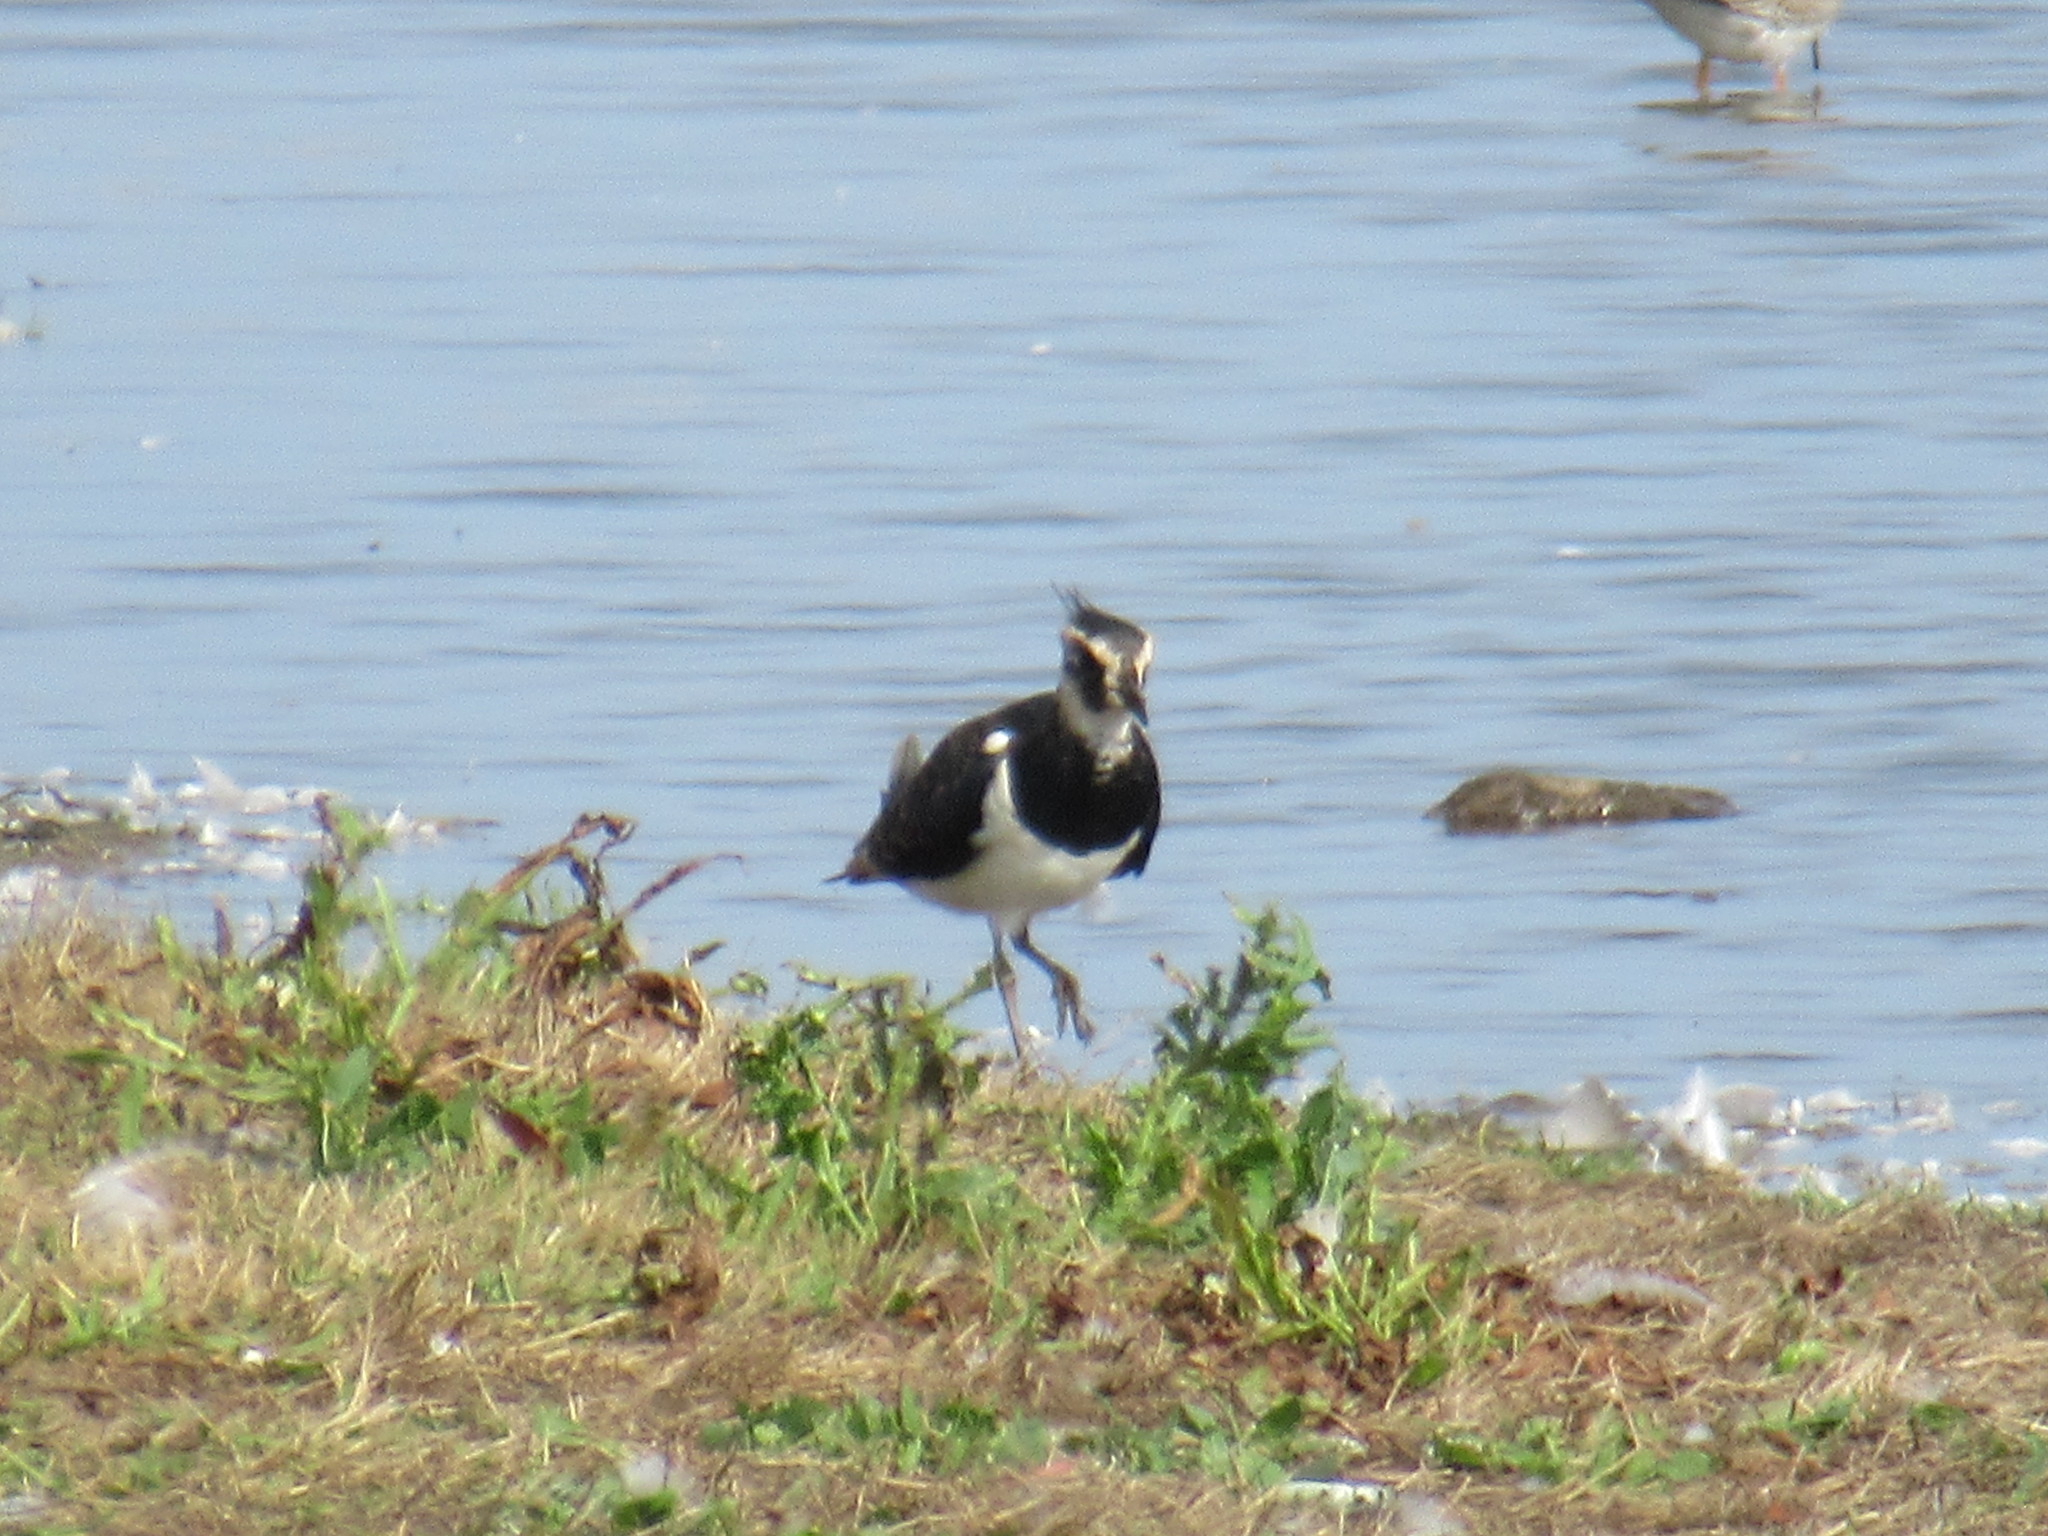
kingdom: Animalia
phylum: Chordata
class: Aves
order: Charadriiformes
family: Charadriidae
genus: Vanellus
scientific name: Vanellus vanellus
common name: Northern lapwing
